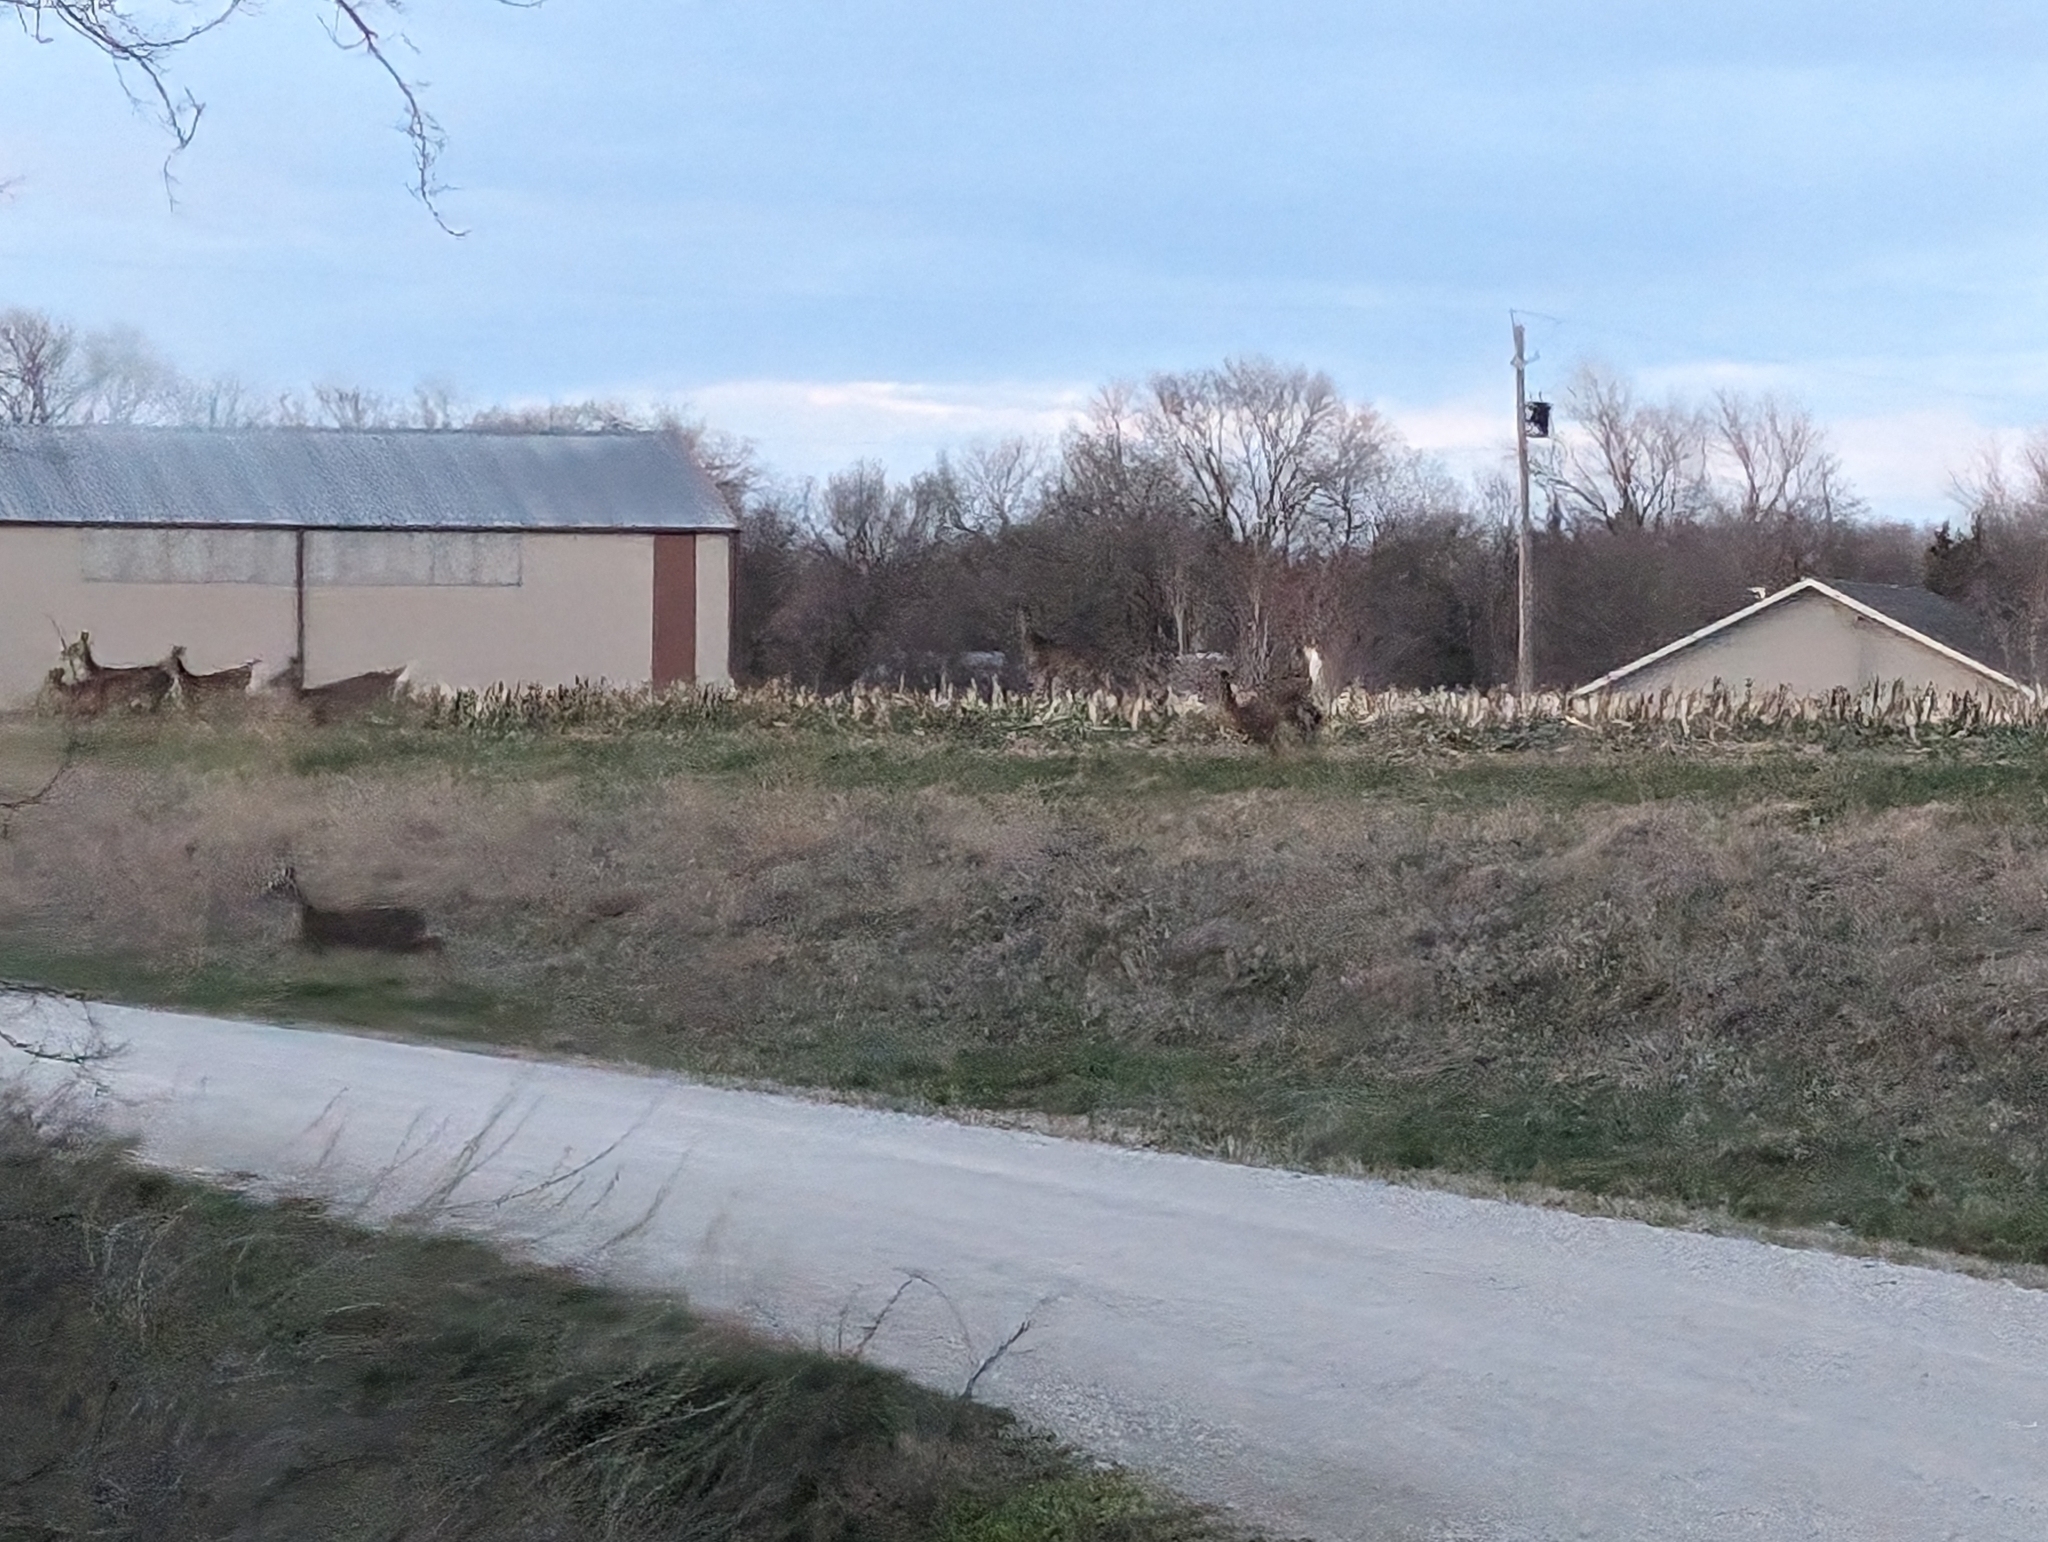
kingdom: Animalia
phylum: Chordata
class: Mammalia
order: Artiodactyla
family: Cervidae
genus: Odocoileus
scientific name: Odocoileus virginianus
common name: White-tailed deer
